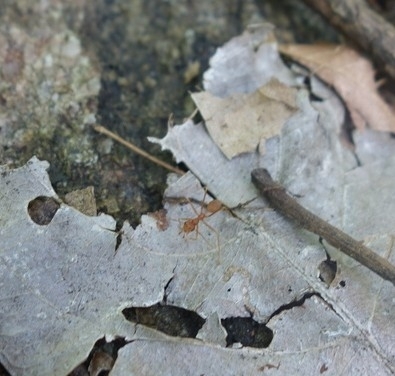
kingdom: Animalia
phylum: Arthropoda
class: Insecta
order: Hymenoptera
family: Formicidae
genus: Oecophylla
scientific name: Oecophylla smaragdina
